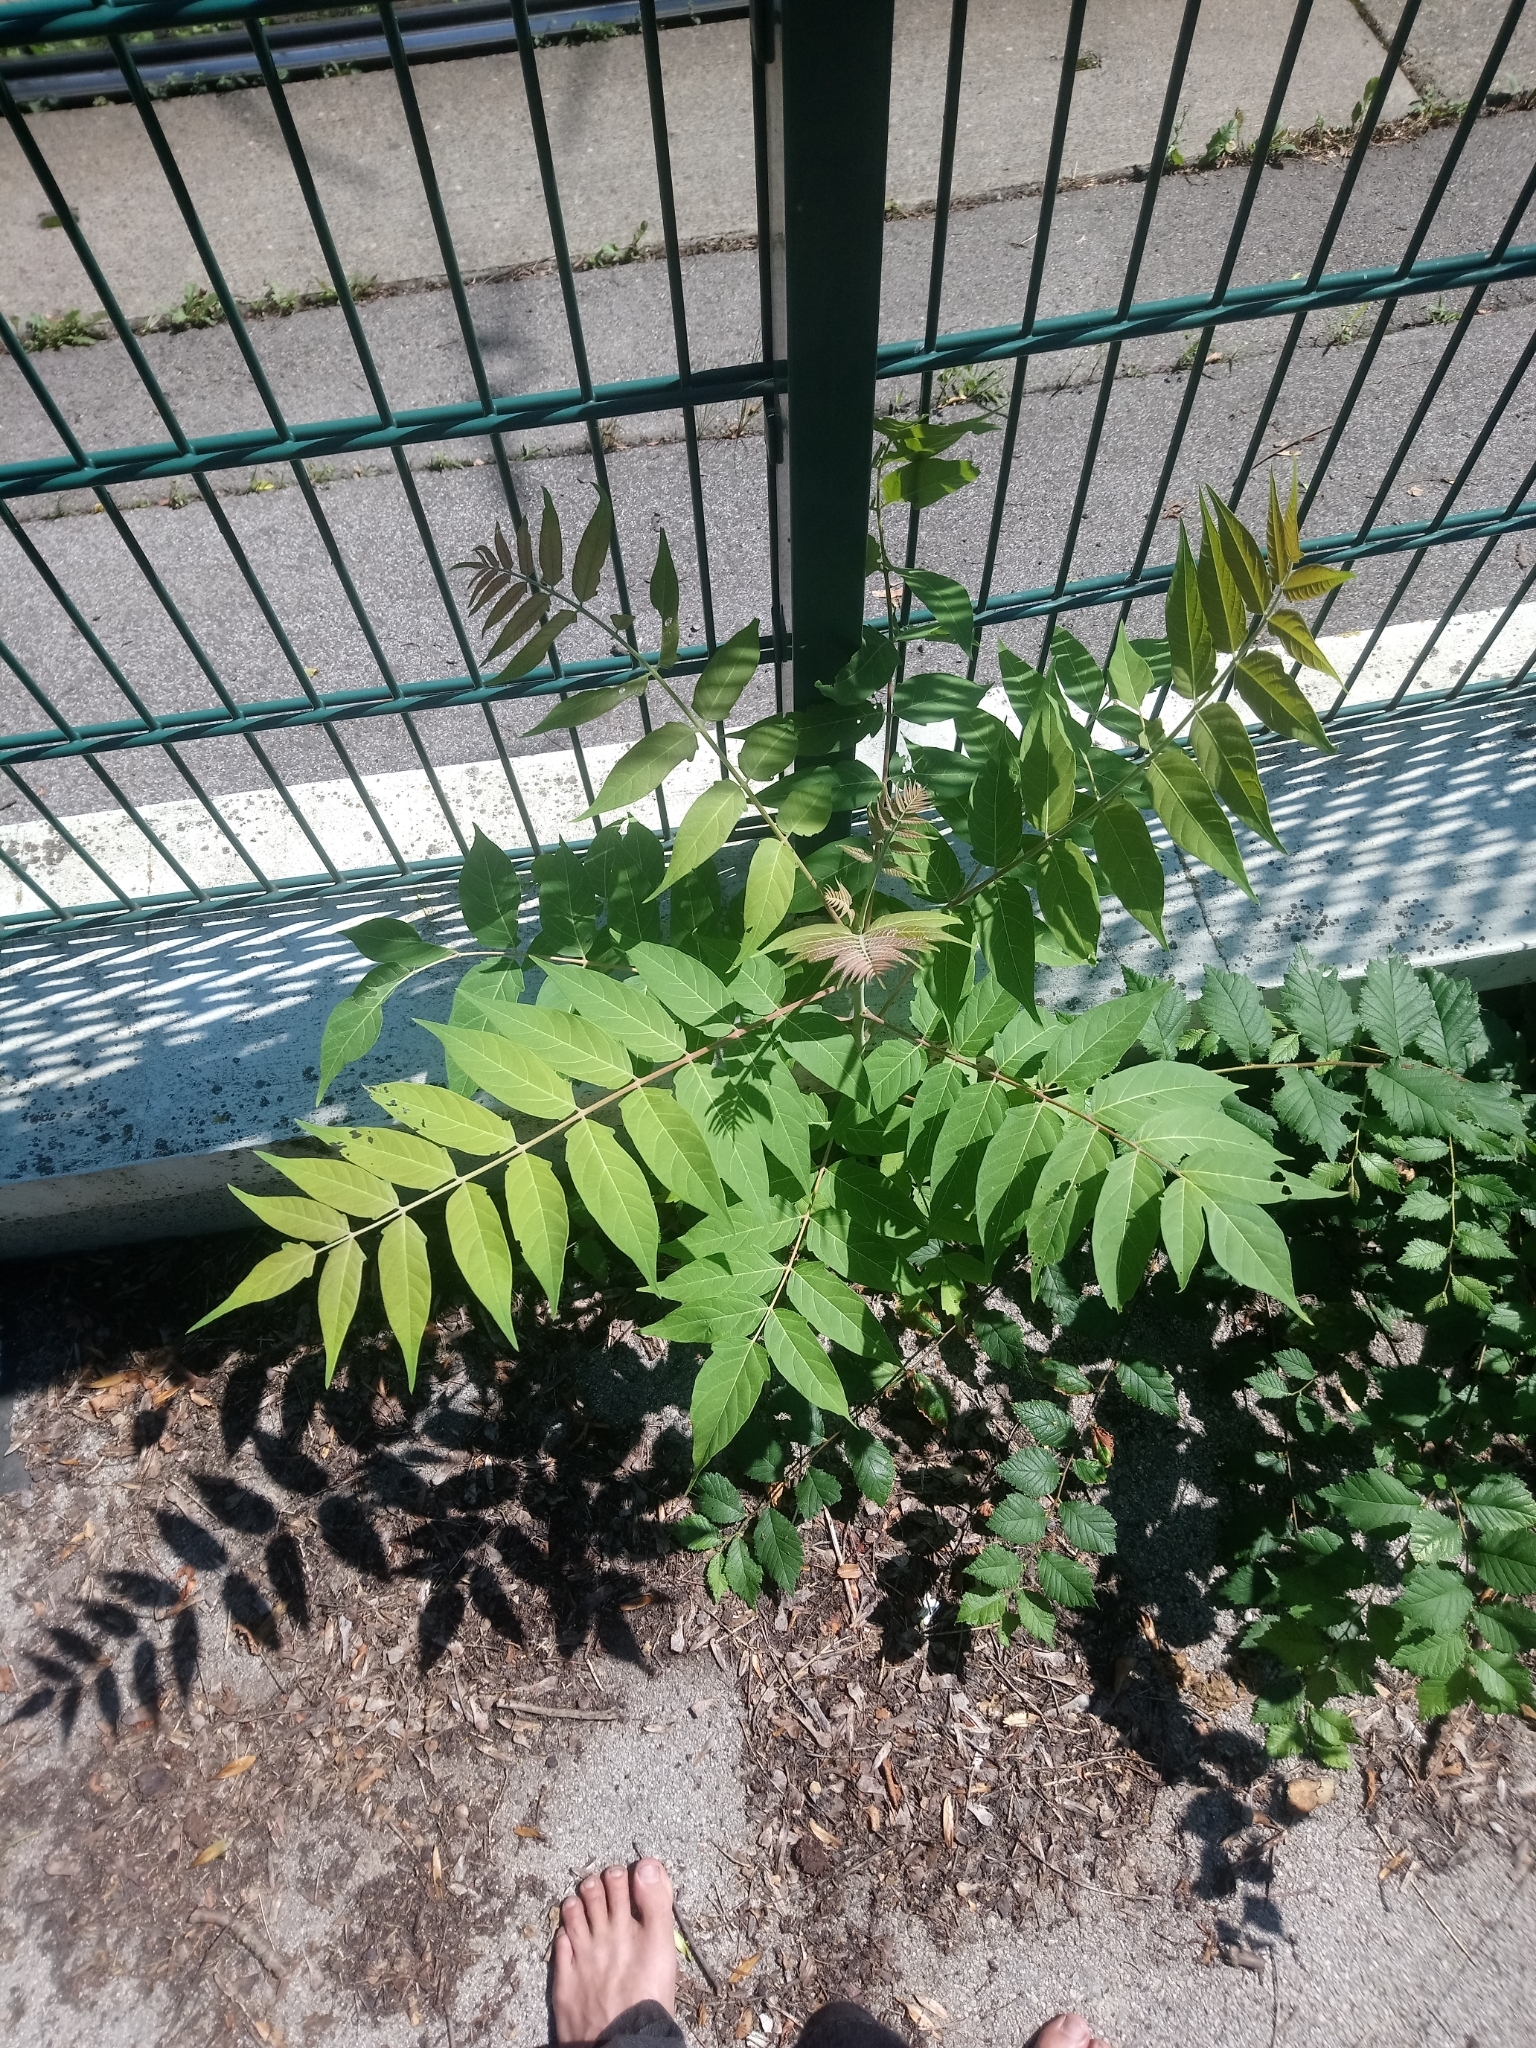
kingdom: Plantae
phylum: Tracheophyta
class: Magnoliopsida
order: Sapindales
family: Simaroubaceae
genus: Ailanthus
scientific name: Ailanthus altissima
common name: Tree-of-heaven
